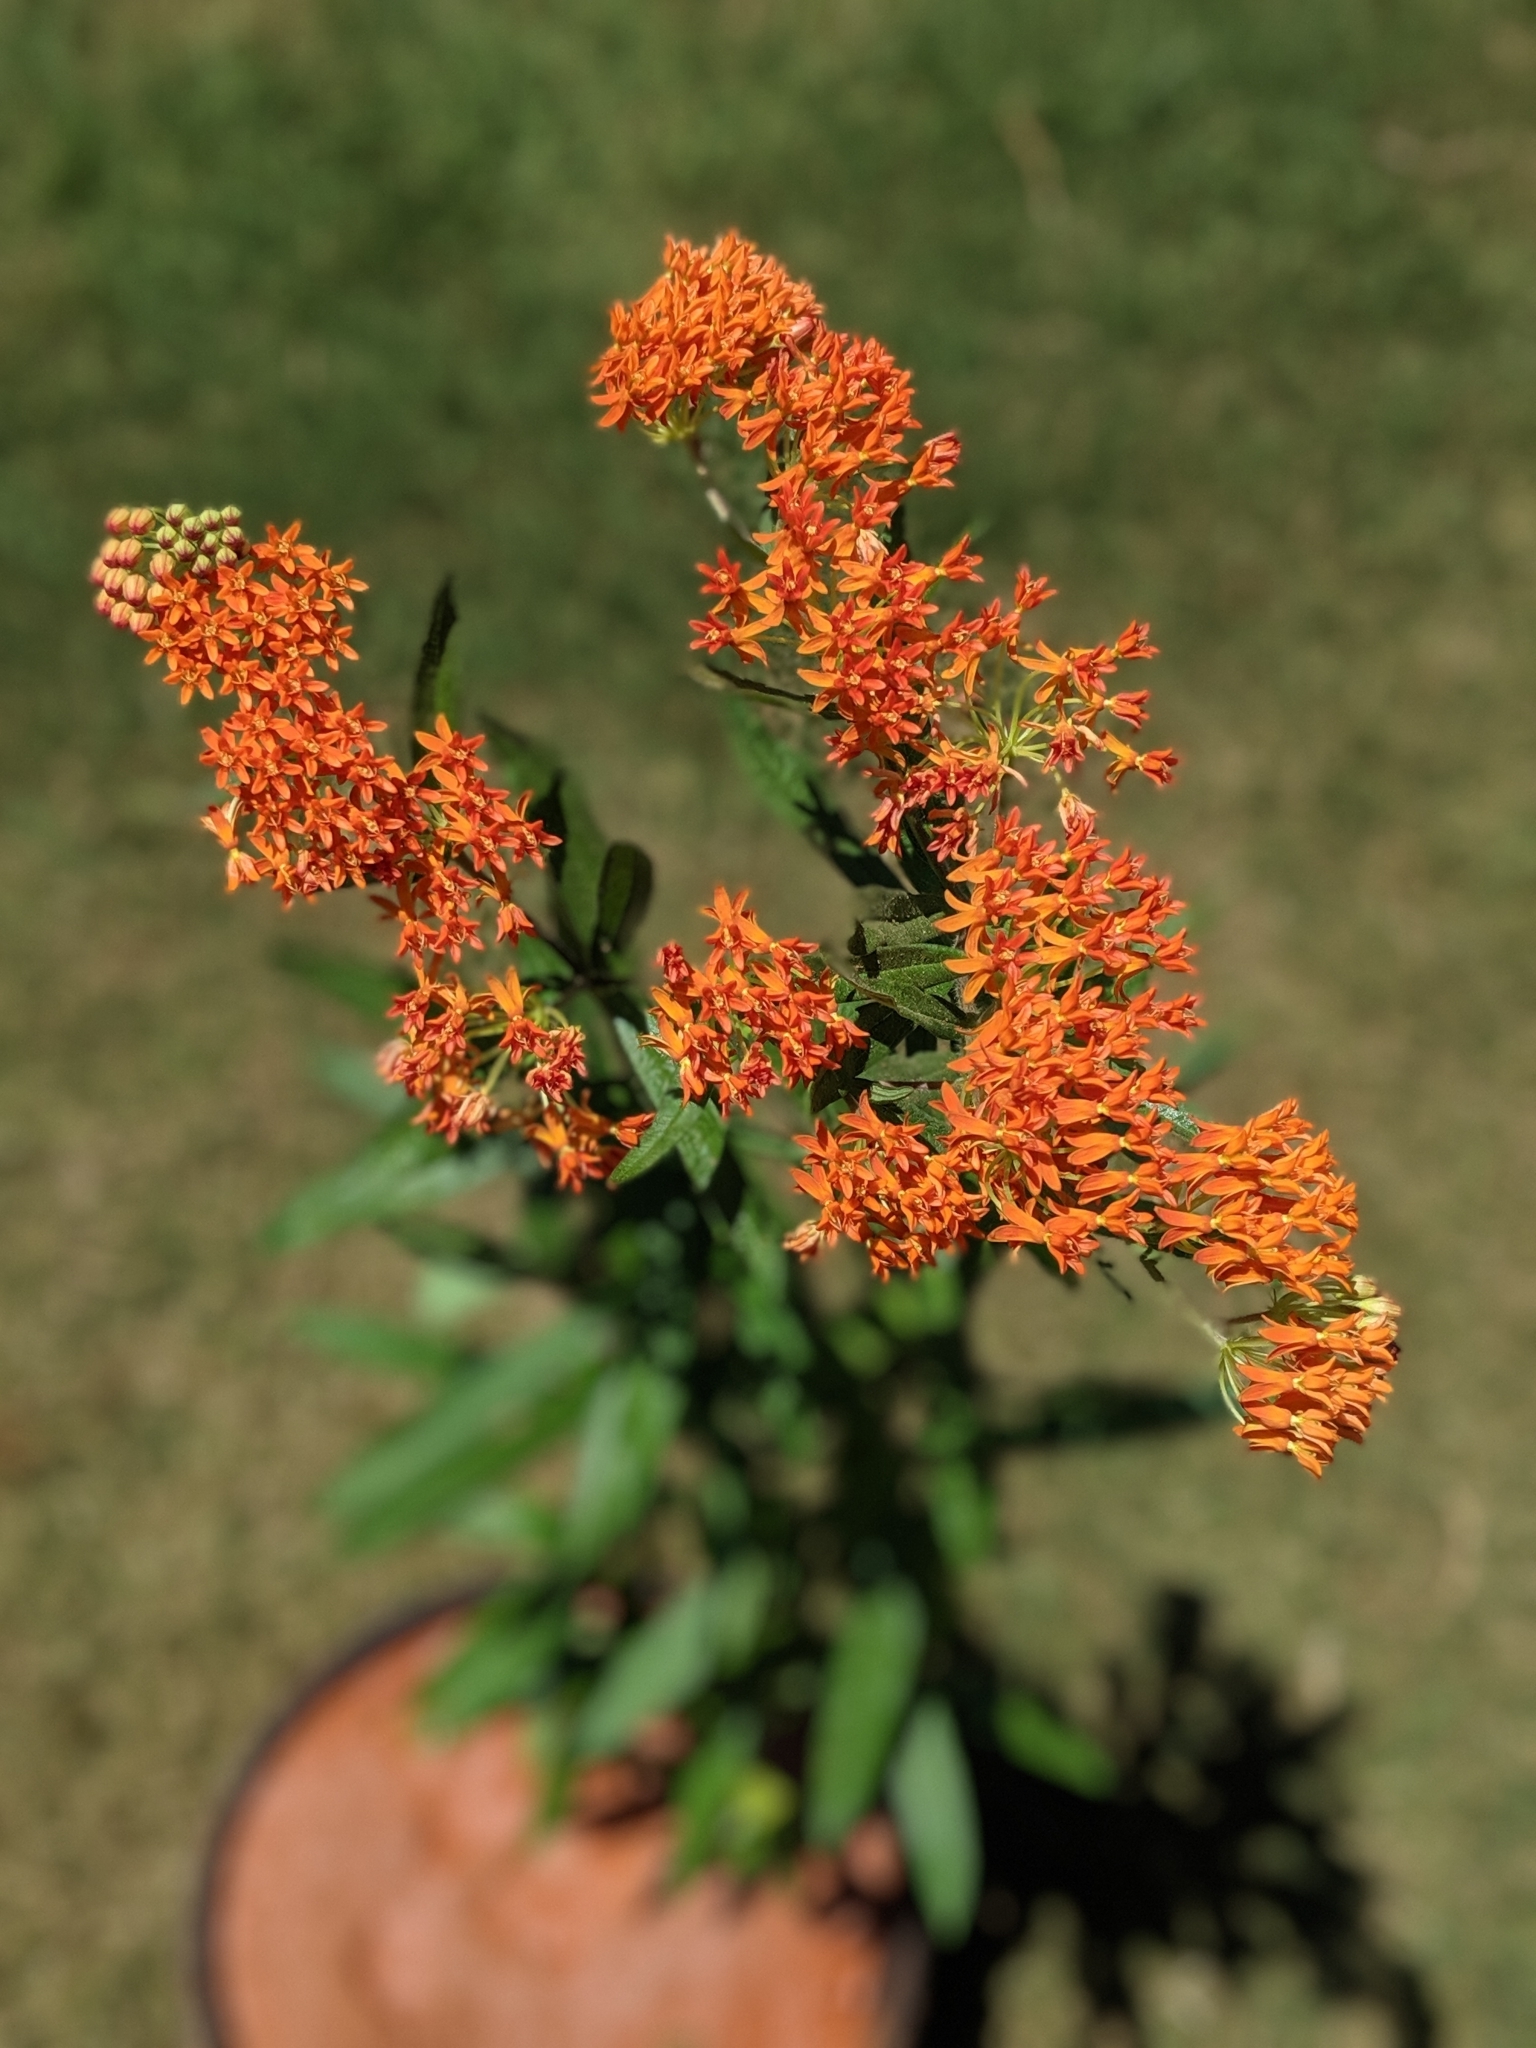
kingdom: Plantae
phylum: Tracheophyta
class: Magnoliopsida
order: Gentianales
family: Apocynaceae
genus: Asclepias
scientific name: Asclepias tuberosa
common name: Butterfly milkweed
